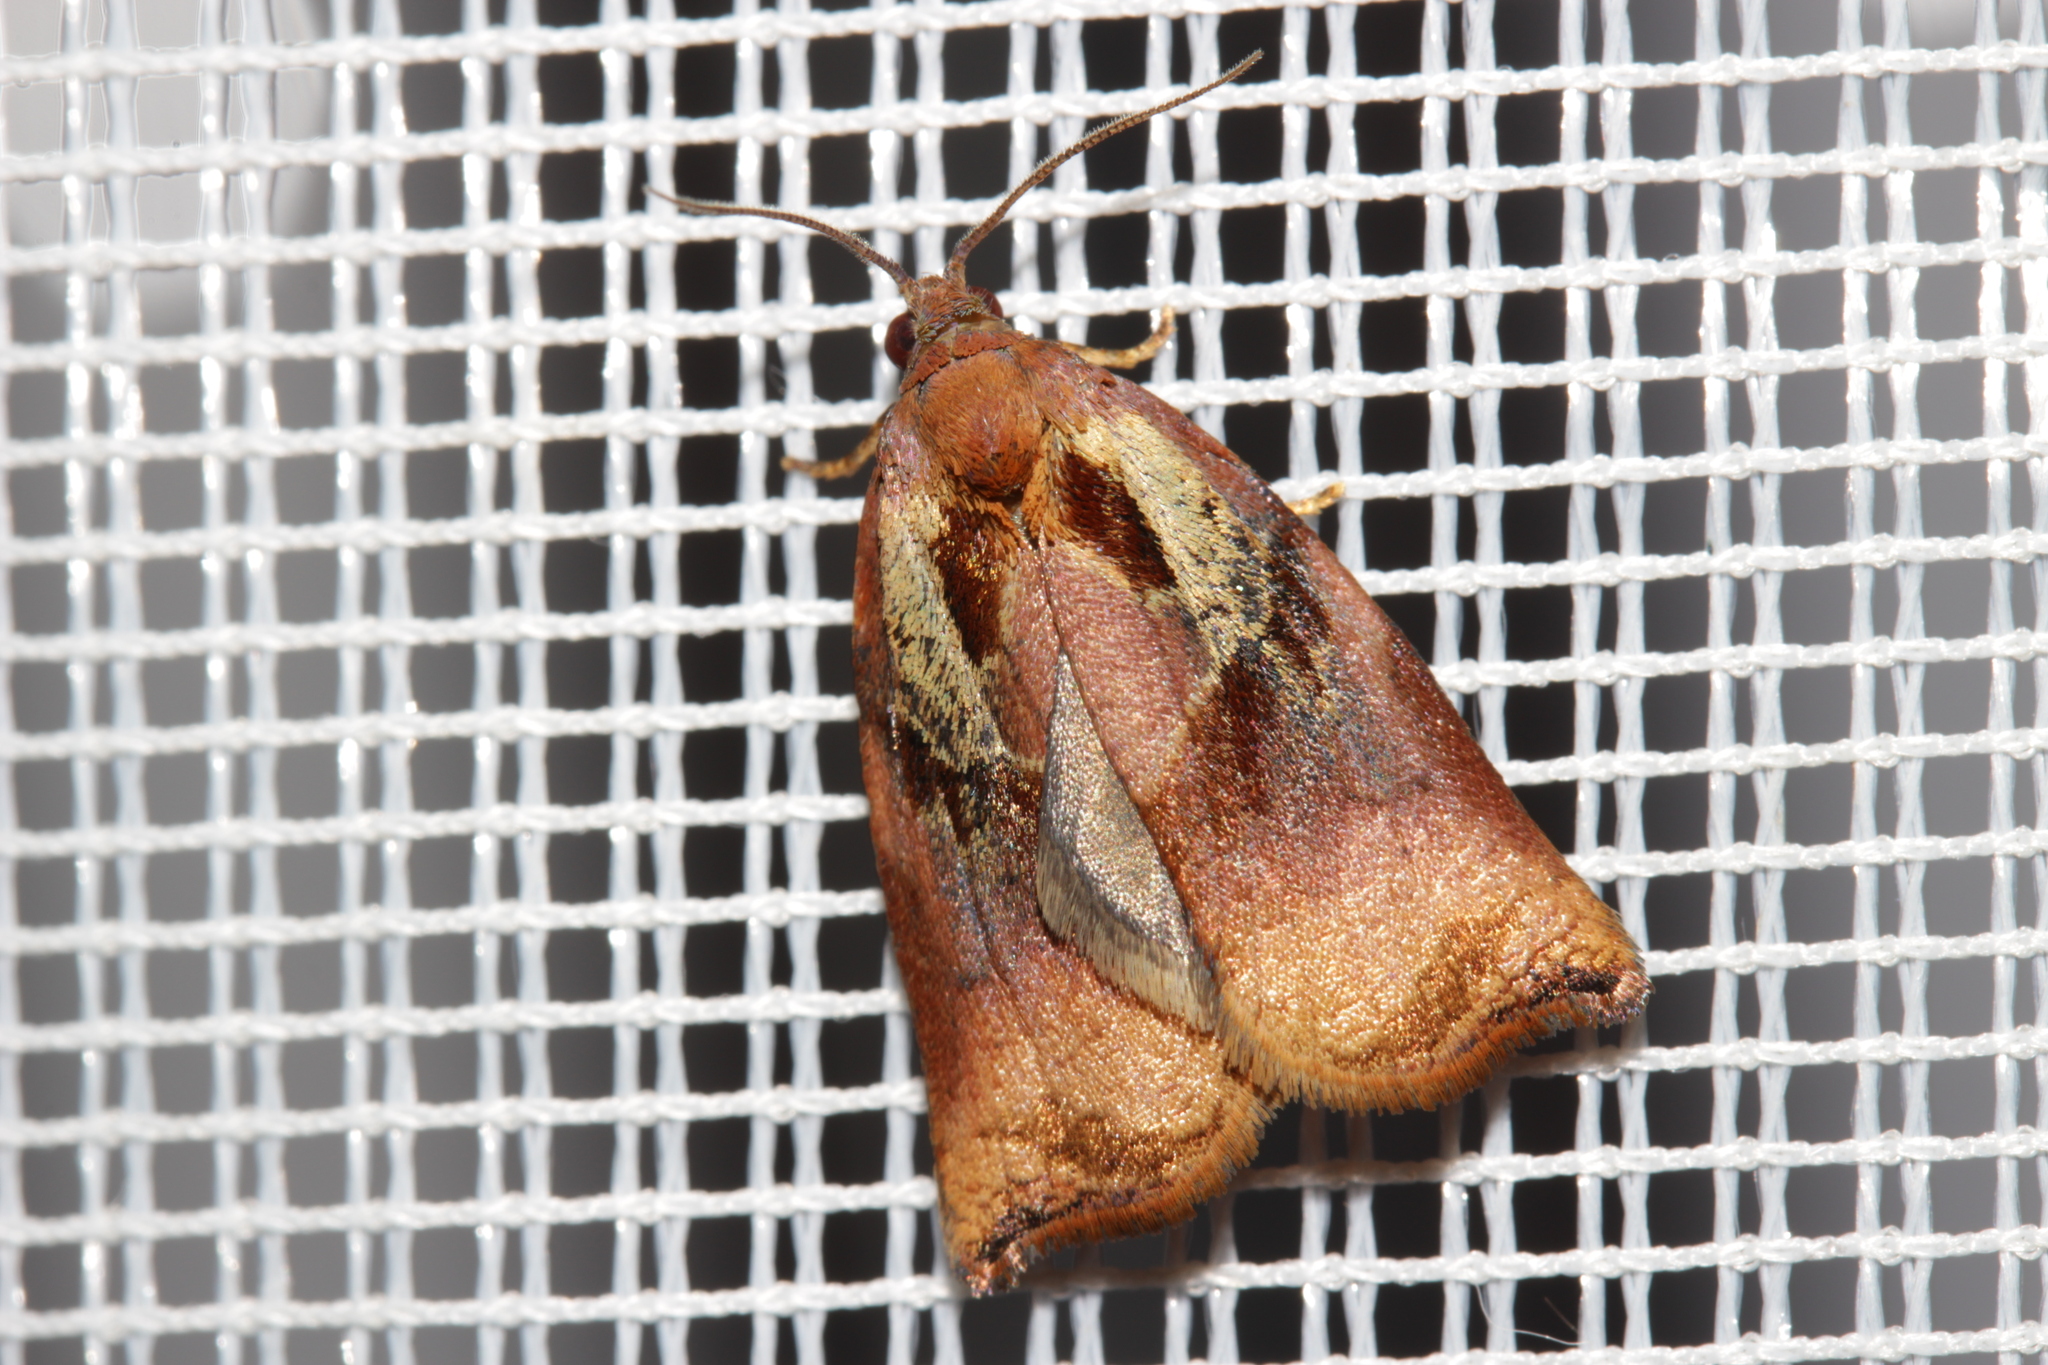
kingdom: Animalia
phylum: Arthropoda
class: Insecta
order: Lepidoptera
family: Tortricidae
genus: Archips
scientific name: Archips podana
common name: Large fruit-tree tortrix
